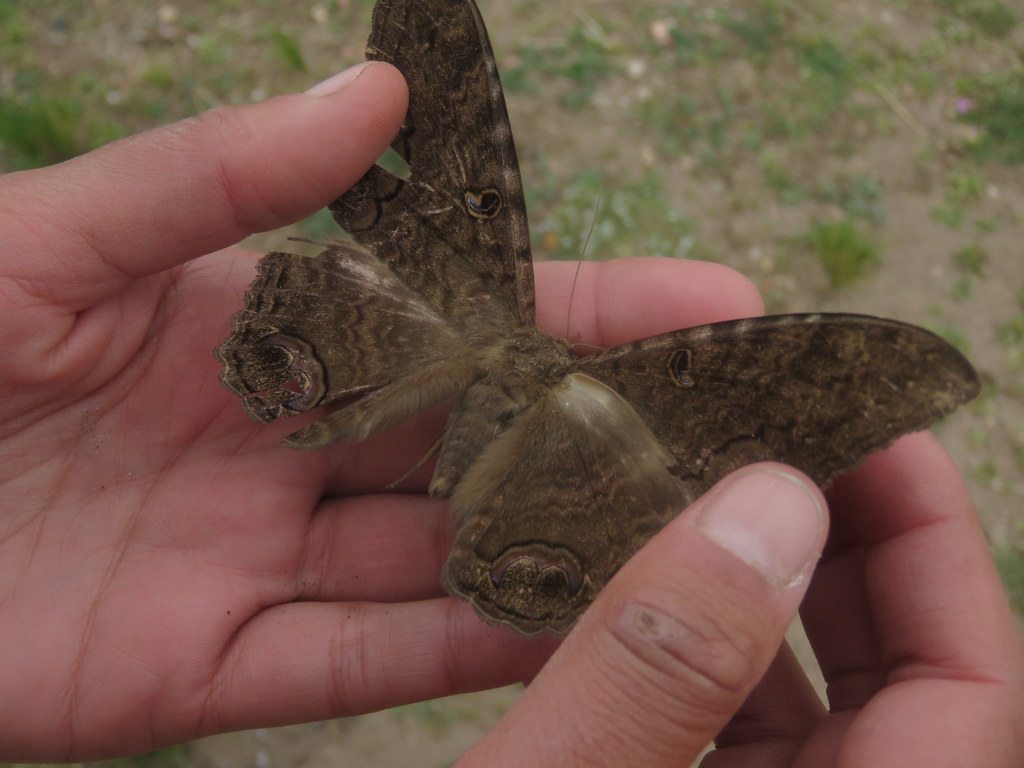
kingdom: Animalia
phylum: Arthropoda
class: Insecta
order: Lepidoptera
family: Erebidae
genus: Ascalapha
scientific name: Ascalapha odorata
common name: Black witch
